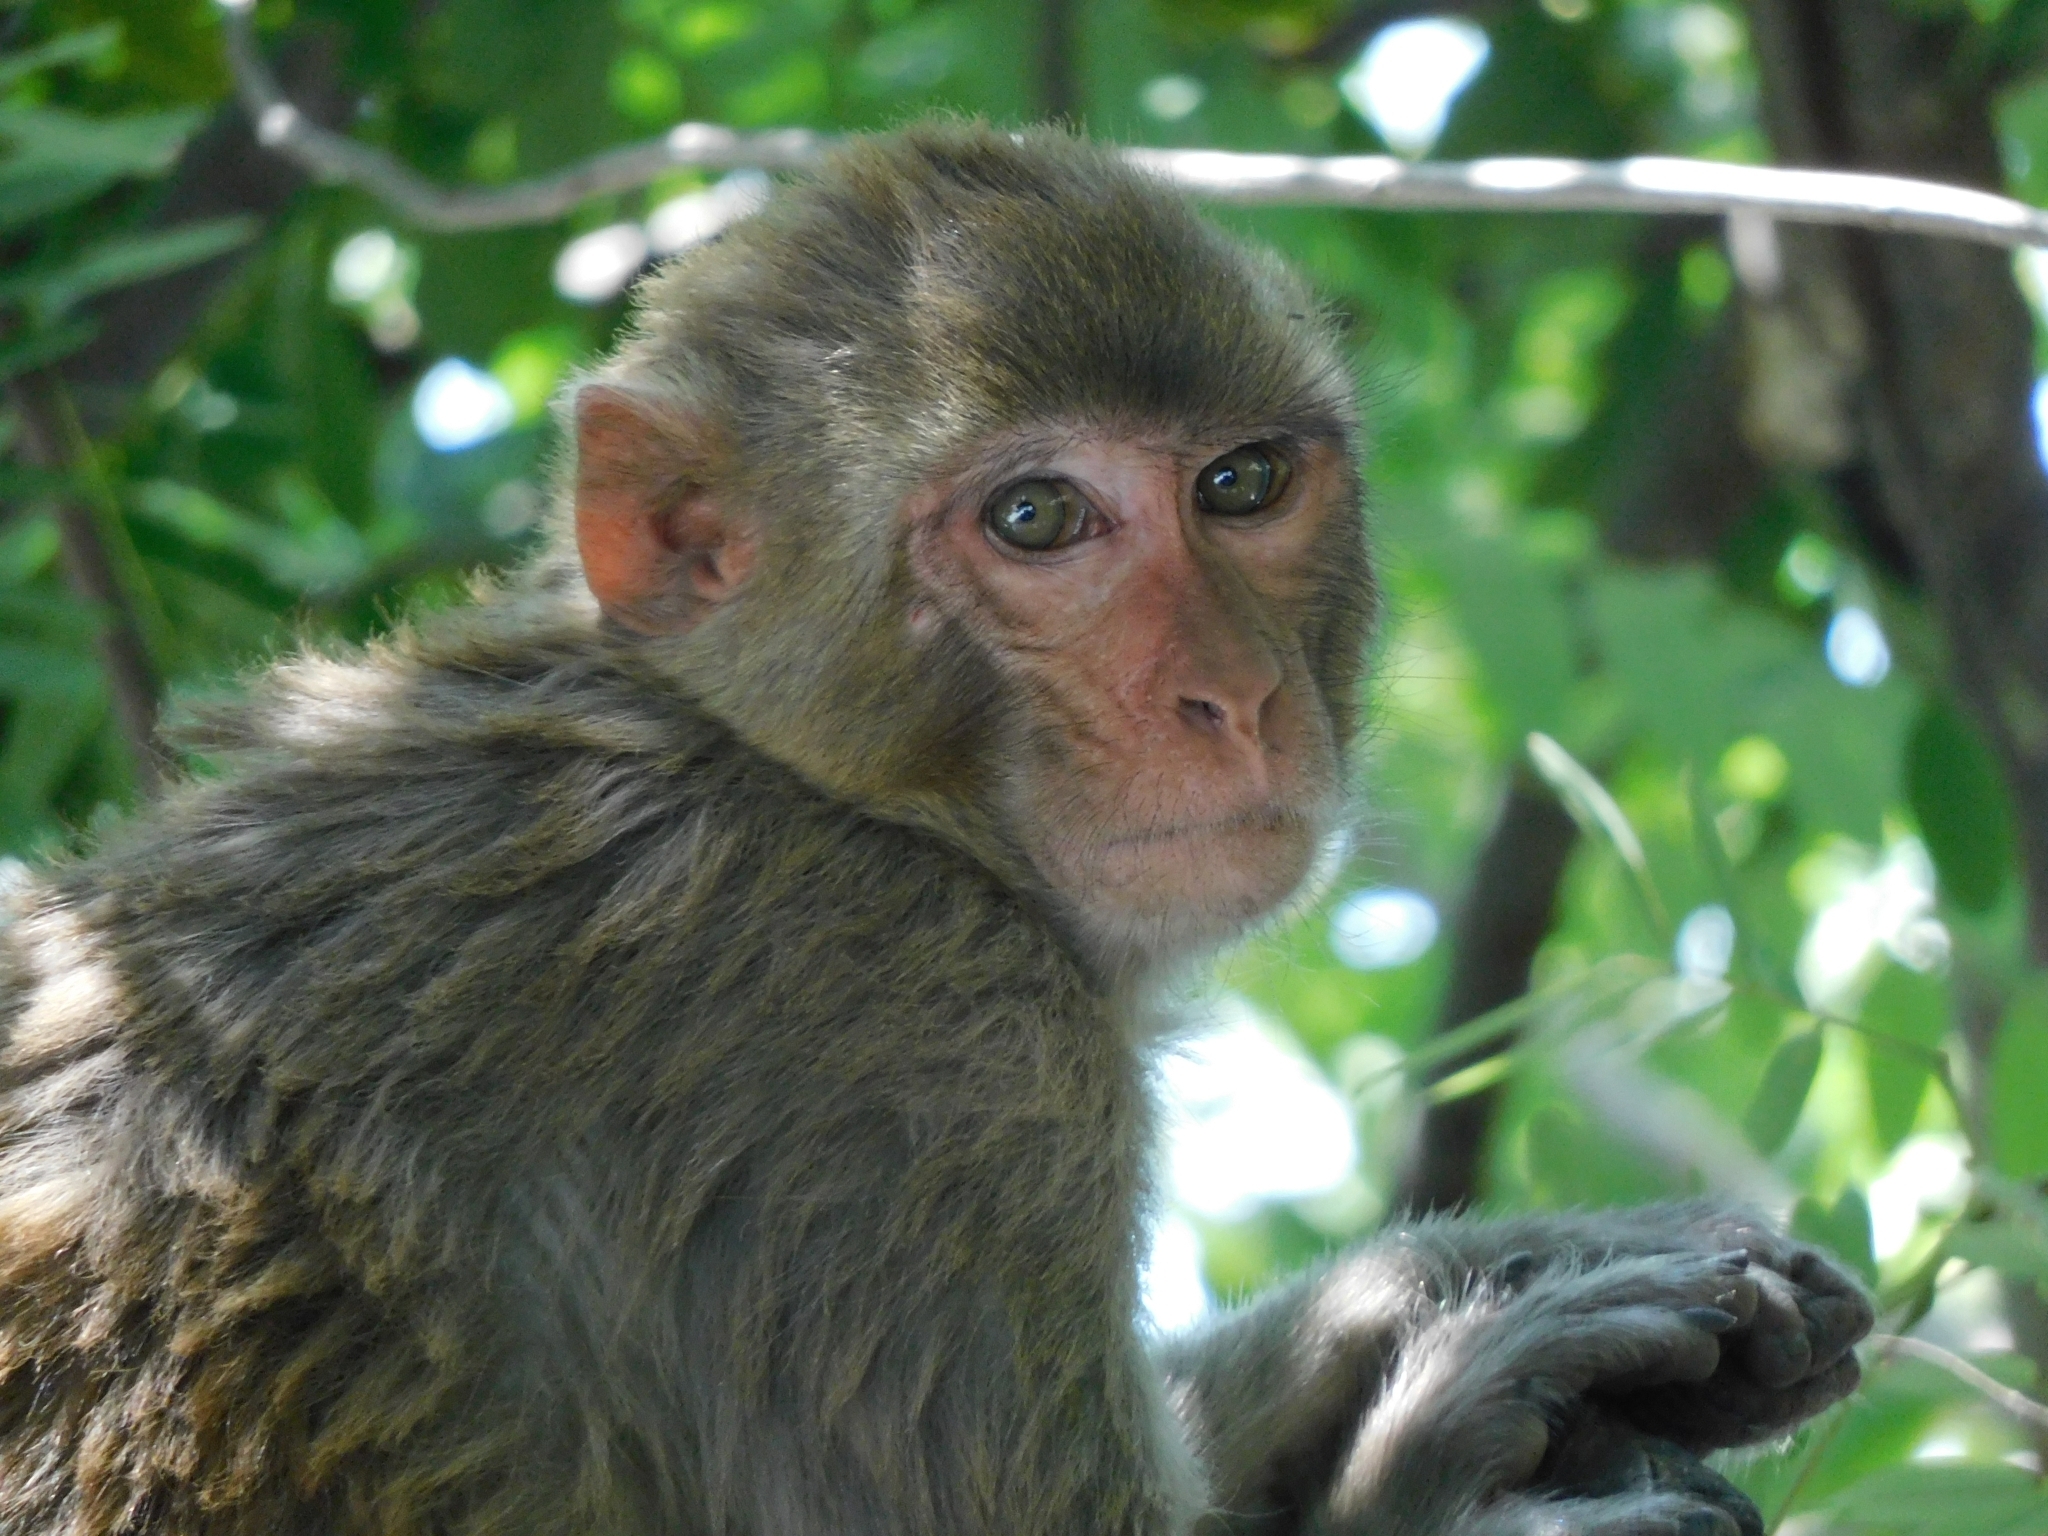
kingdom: Animalia
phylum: Chordata
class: Mammalia
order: Primates
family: Cercopithecidae
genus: Macaca
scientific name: Macaca mulatta
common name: Rhesus monkey
